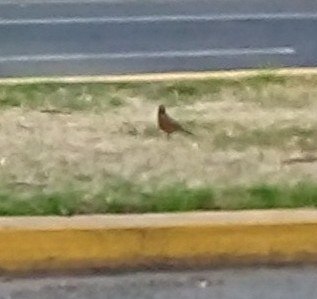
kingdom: Animalia
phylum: Chordata
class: Aves
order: Passeriformes
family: Turdidae
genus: Turdus
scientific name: Turdus migratorius
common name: American robin
